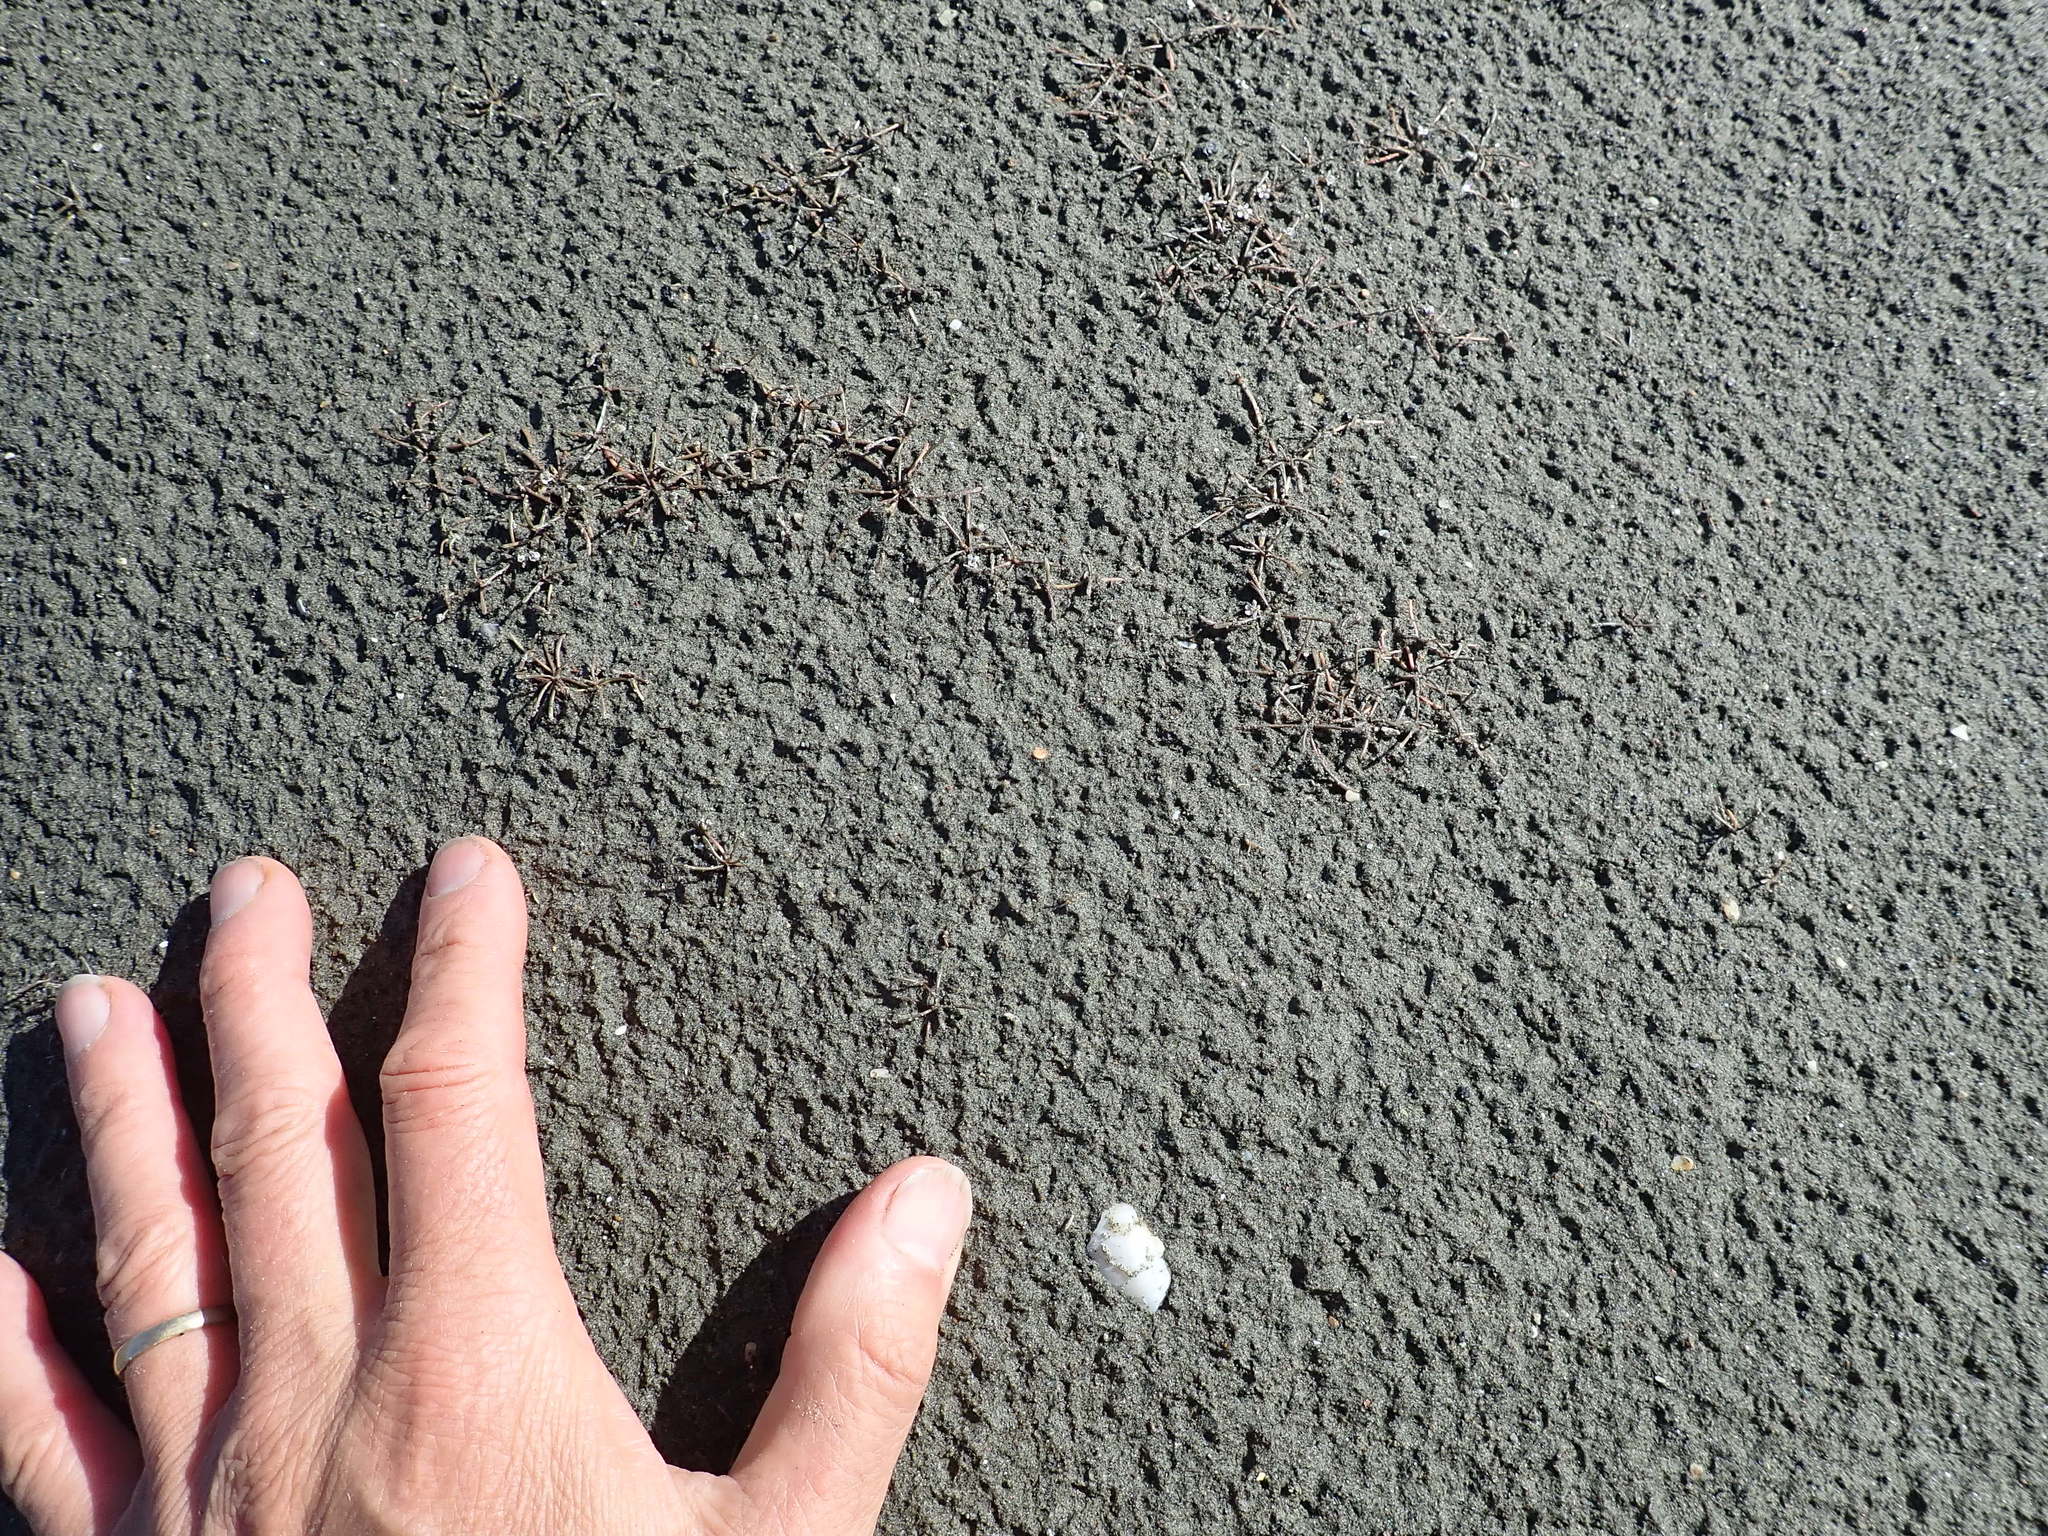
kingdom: Plantae
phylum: Tracheophyta
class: Magnoliopsida
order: Lamiales
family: Scrophulariaceae
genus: Limosella
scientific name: Limosella australis
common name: Welsh mudwort
